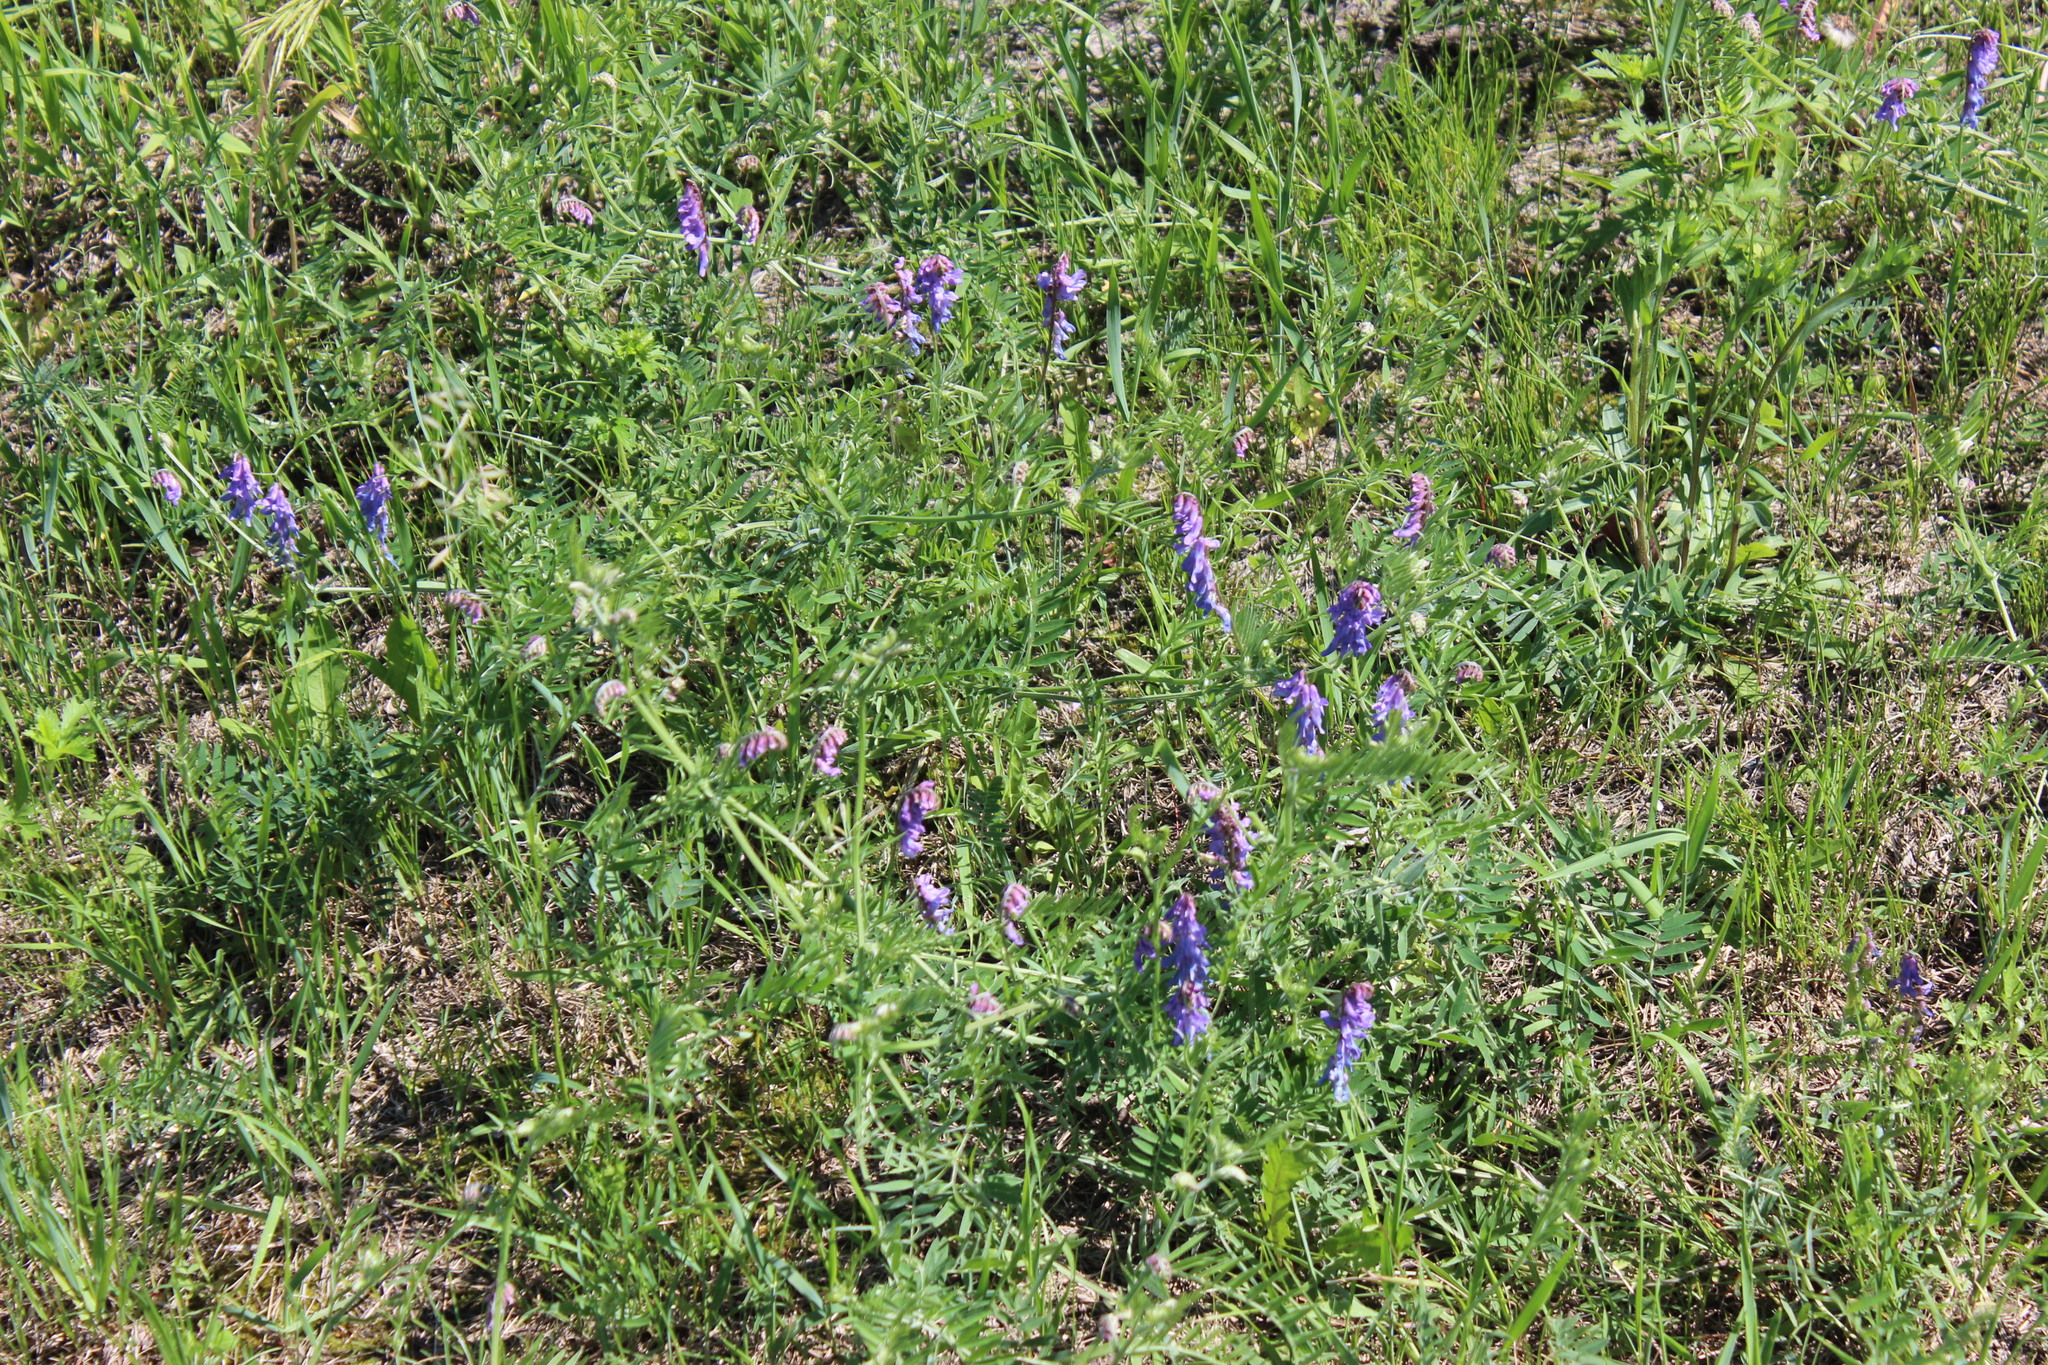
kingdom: Plantae
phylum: Tracheophyta
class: Magnoliopsida
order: Fabales
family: Fabaceae
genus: Vicia
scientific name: Vicia cracca
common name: Bird vetch
